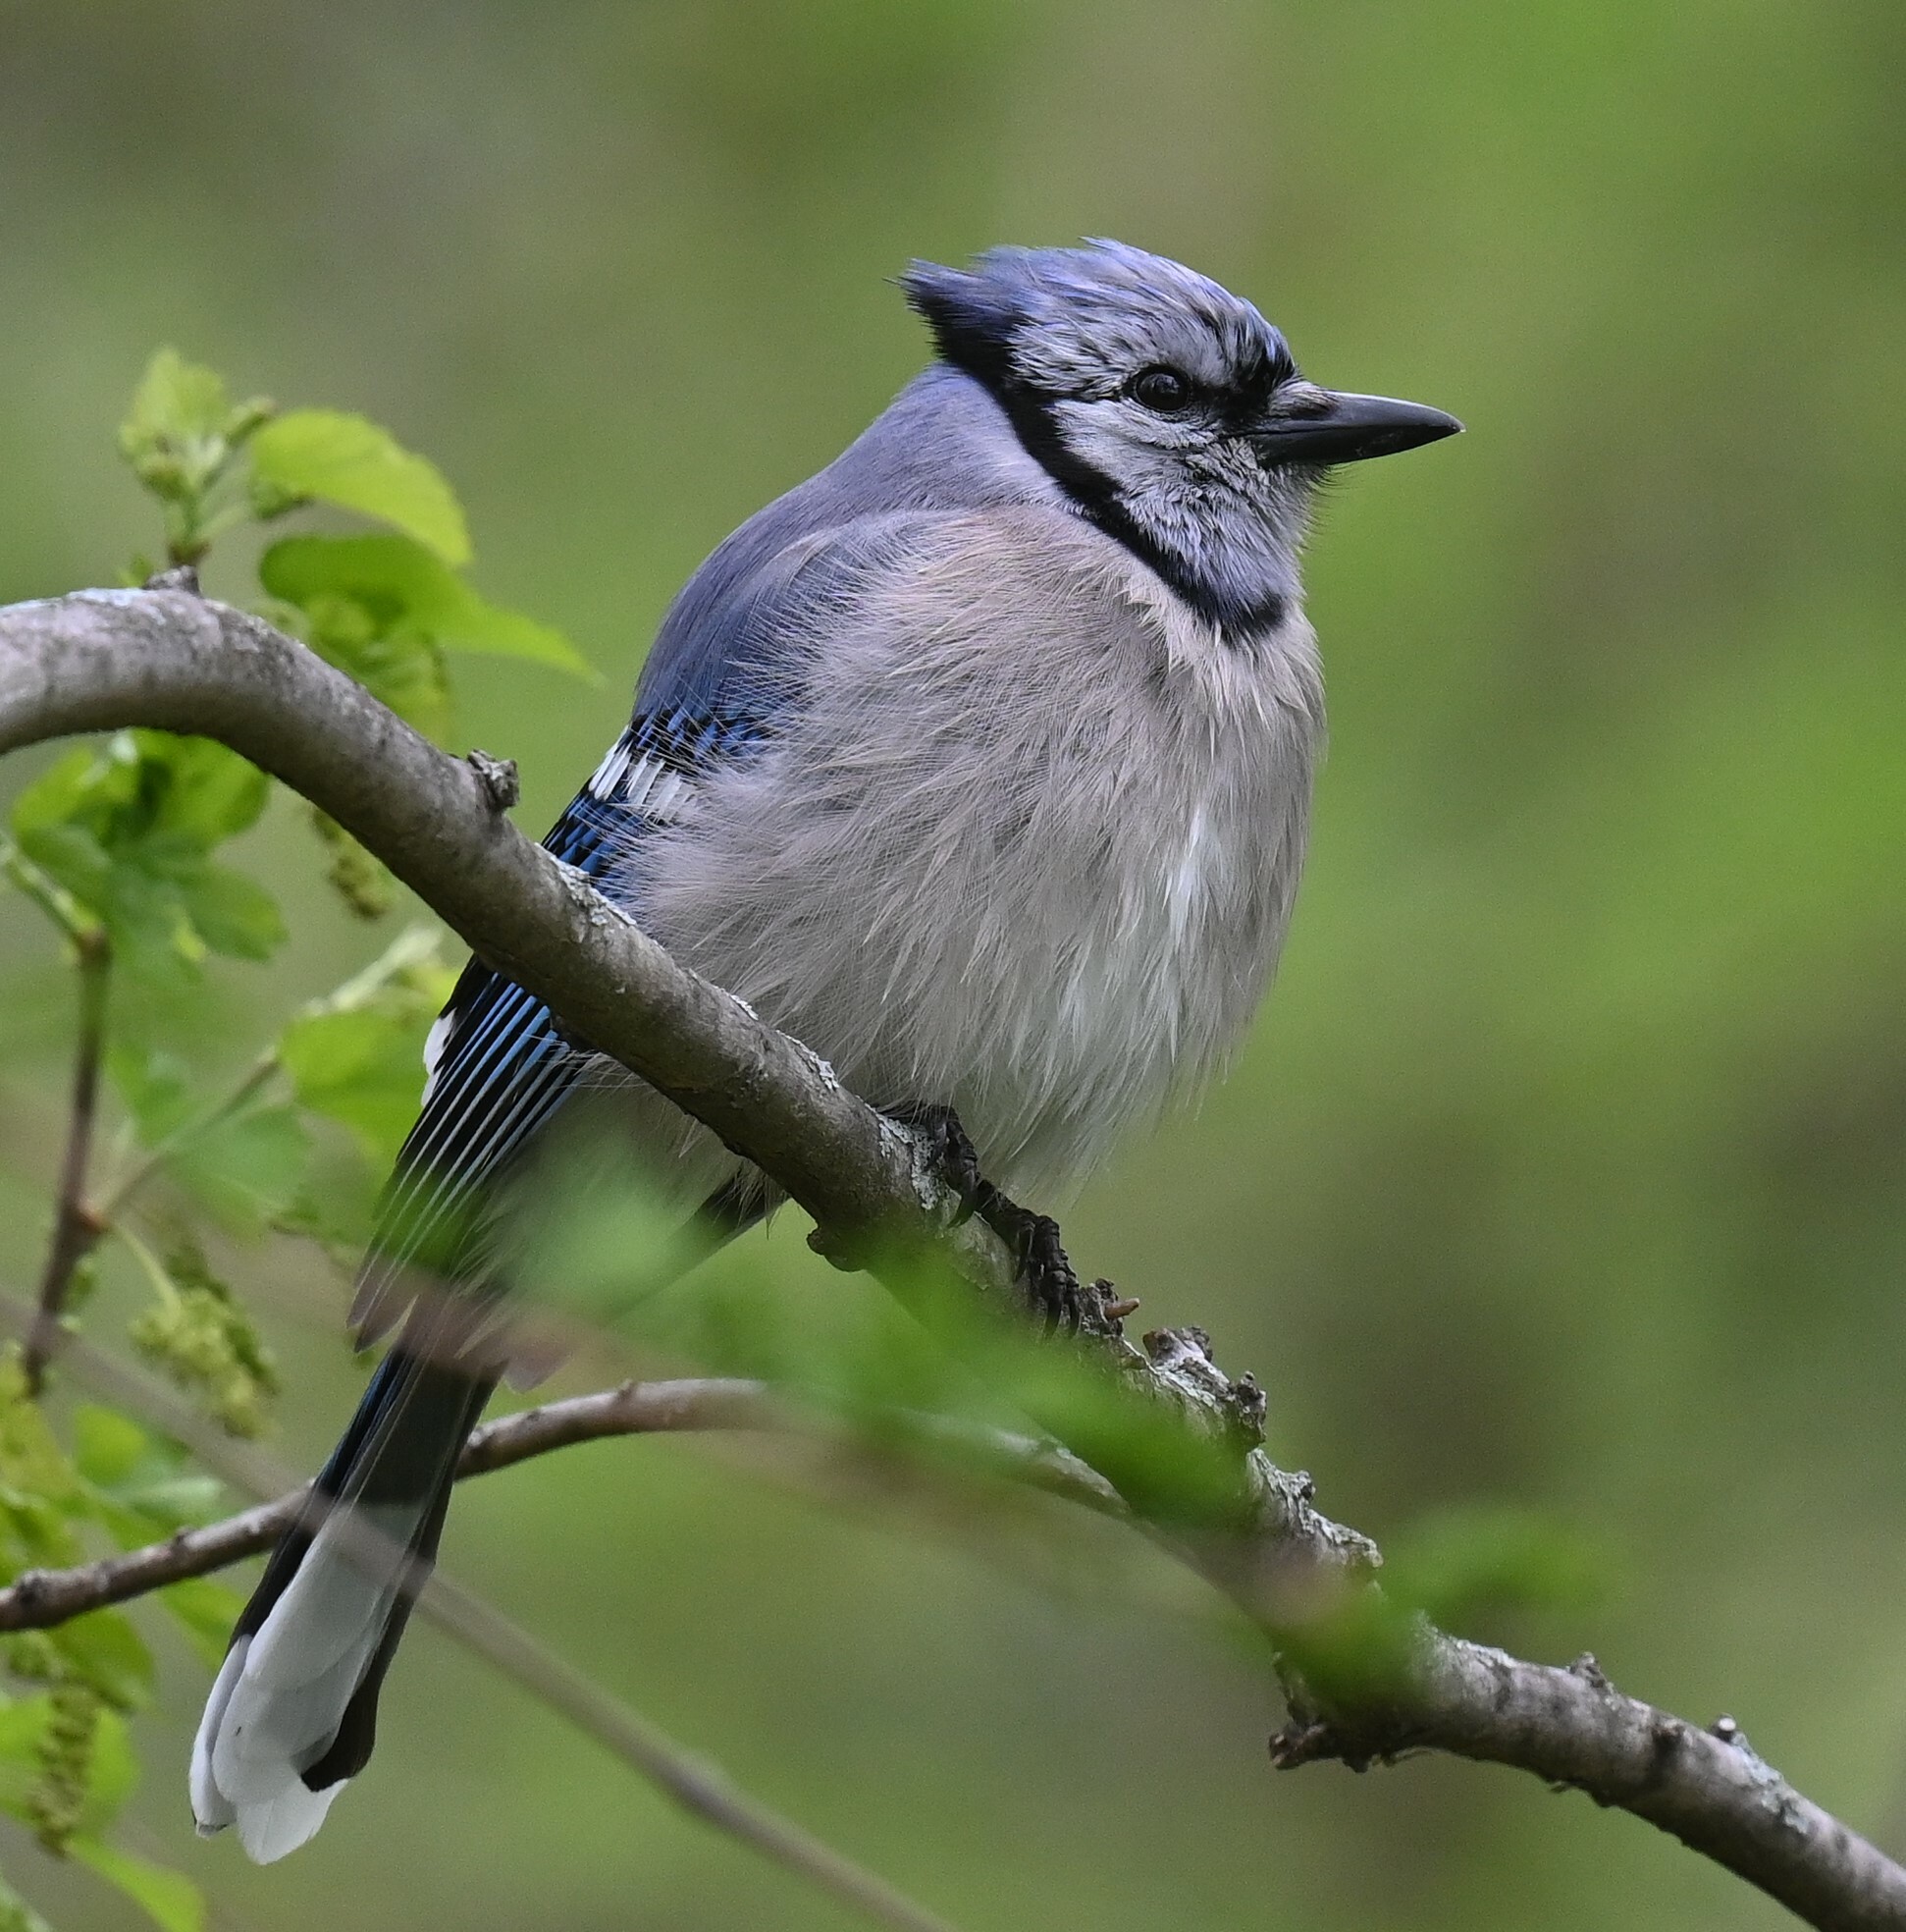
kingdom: Animalia
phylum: Chordata
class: Aves
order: Passeriformes
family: Corvidae
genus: Cyanocitta
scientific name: Cyanocitta cristata
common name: Blue jay
